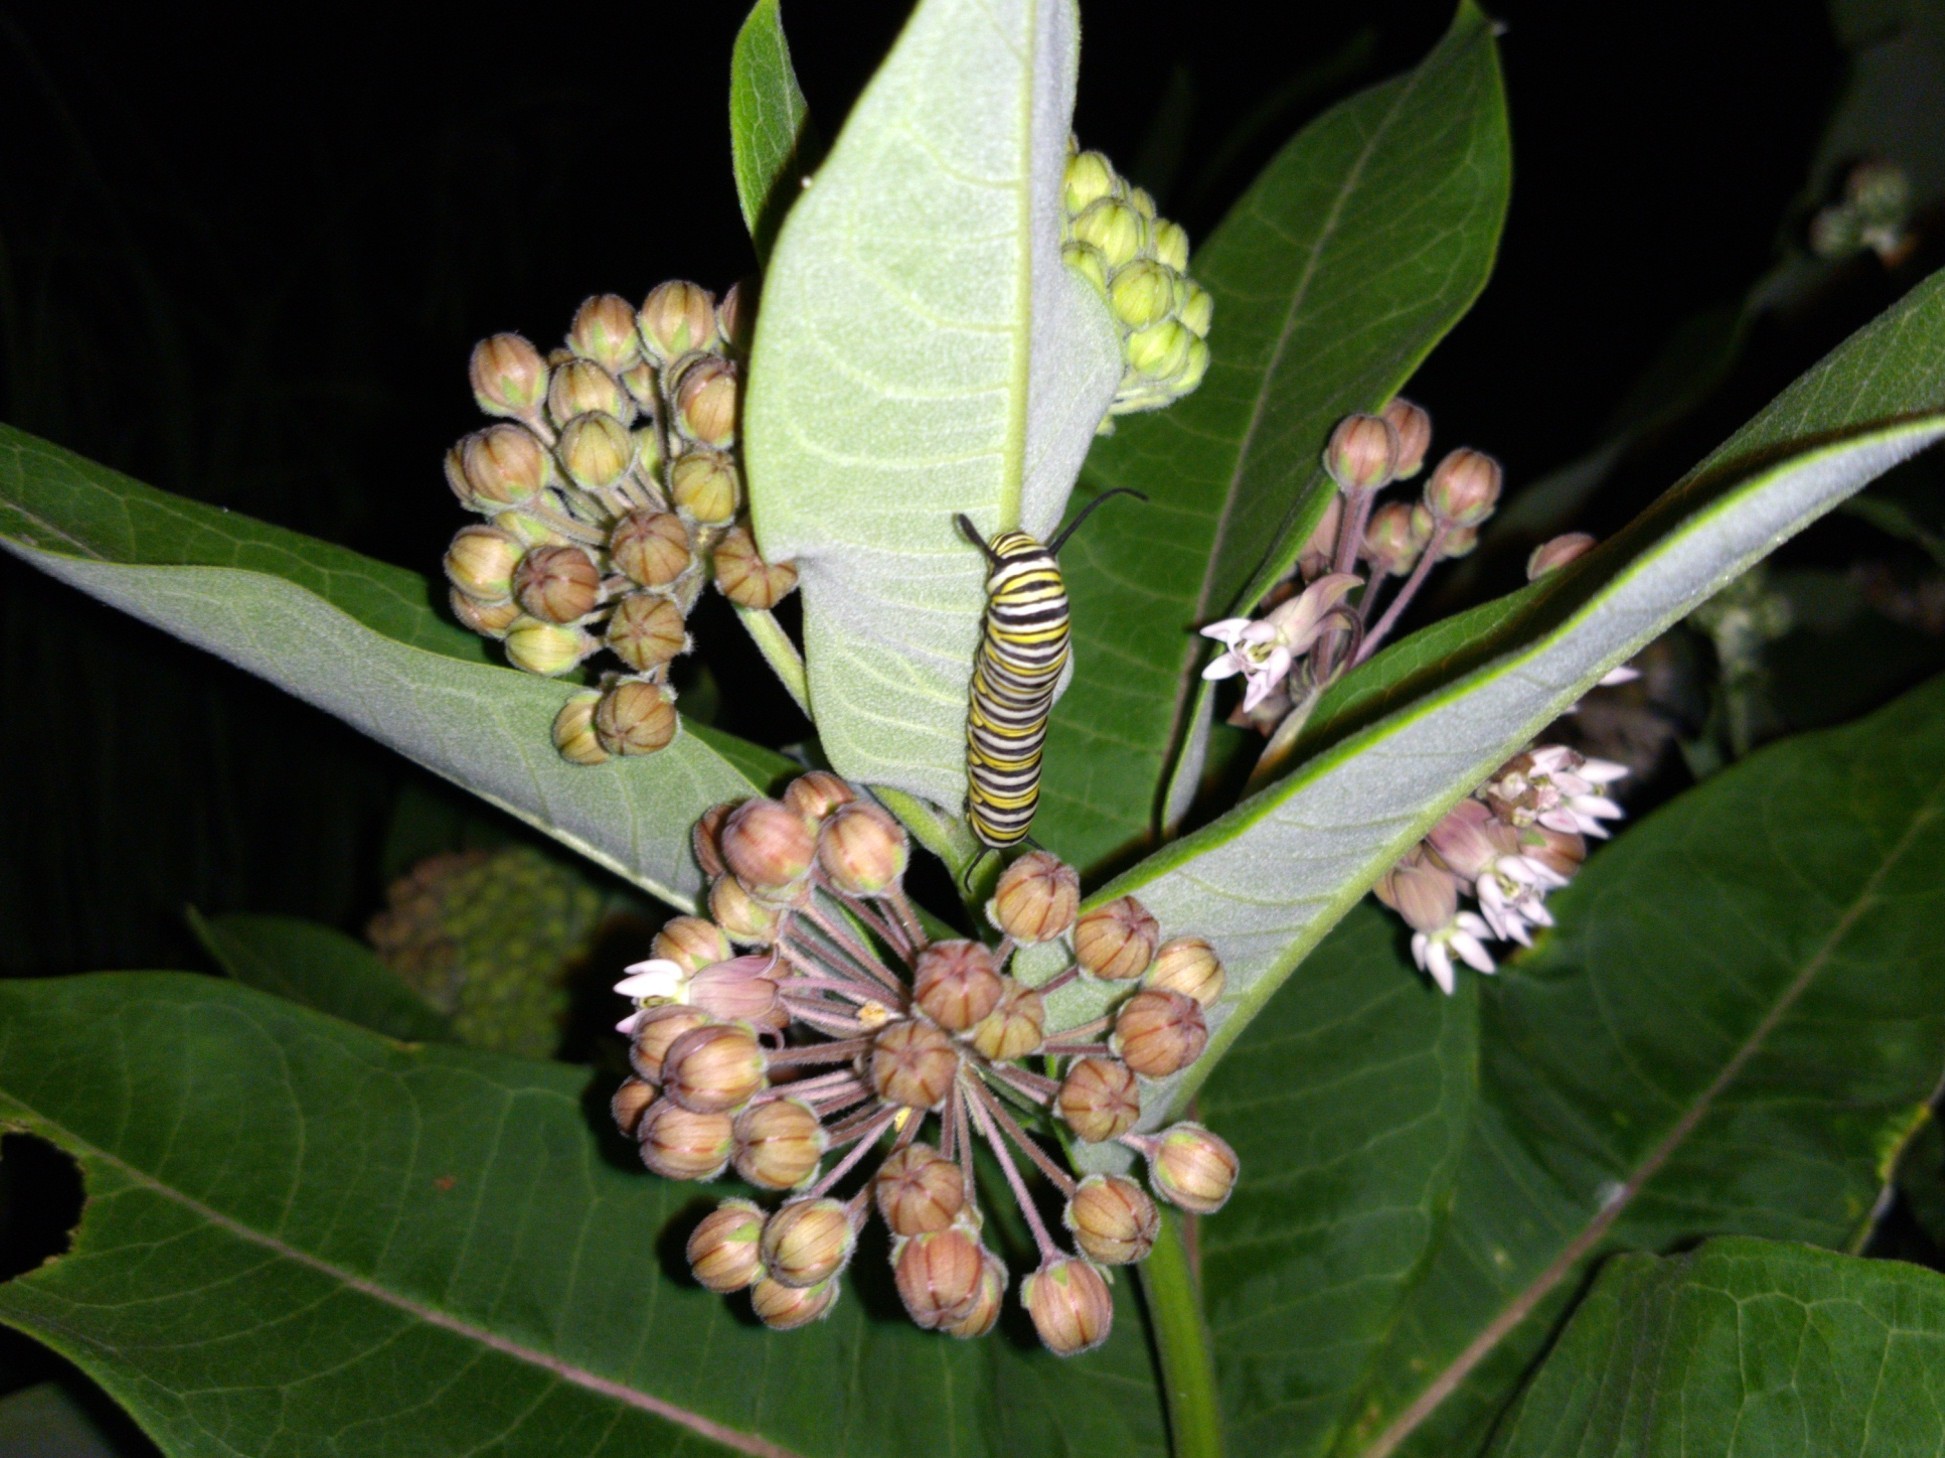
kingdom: Animalia
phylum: Arthropoda
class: Insecta
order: Lepidoptera
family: Nymphalidae
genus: Danaus
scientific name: Danaus plexippus
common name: Monarch
